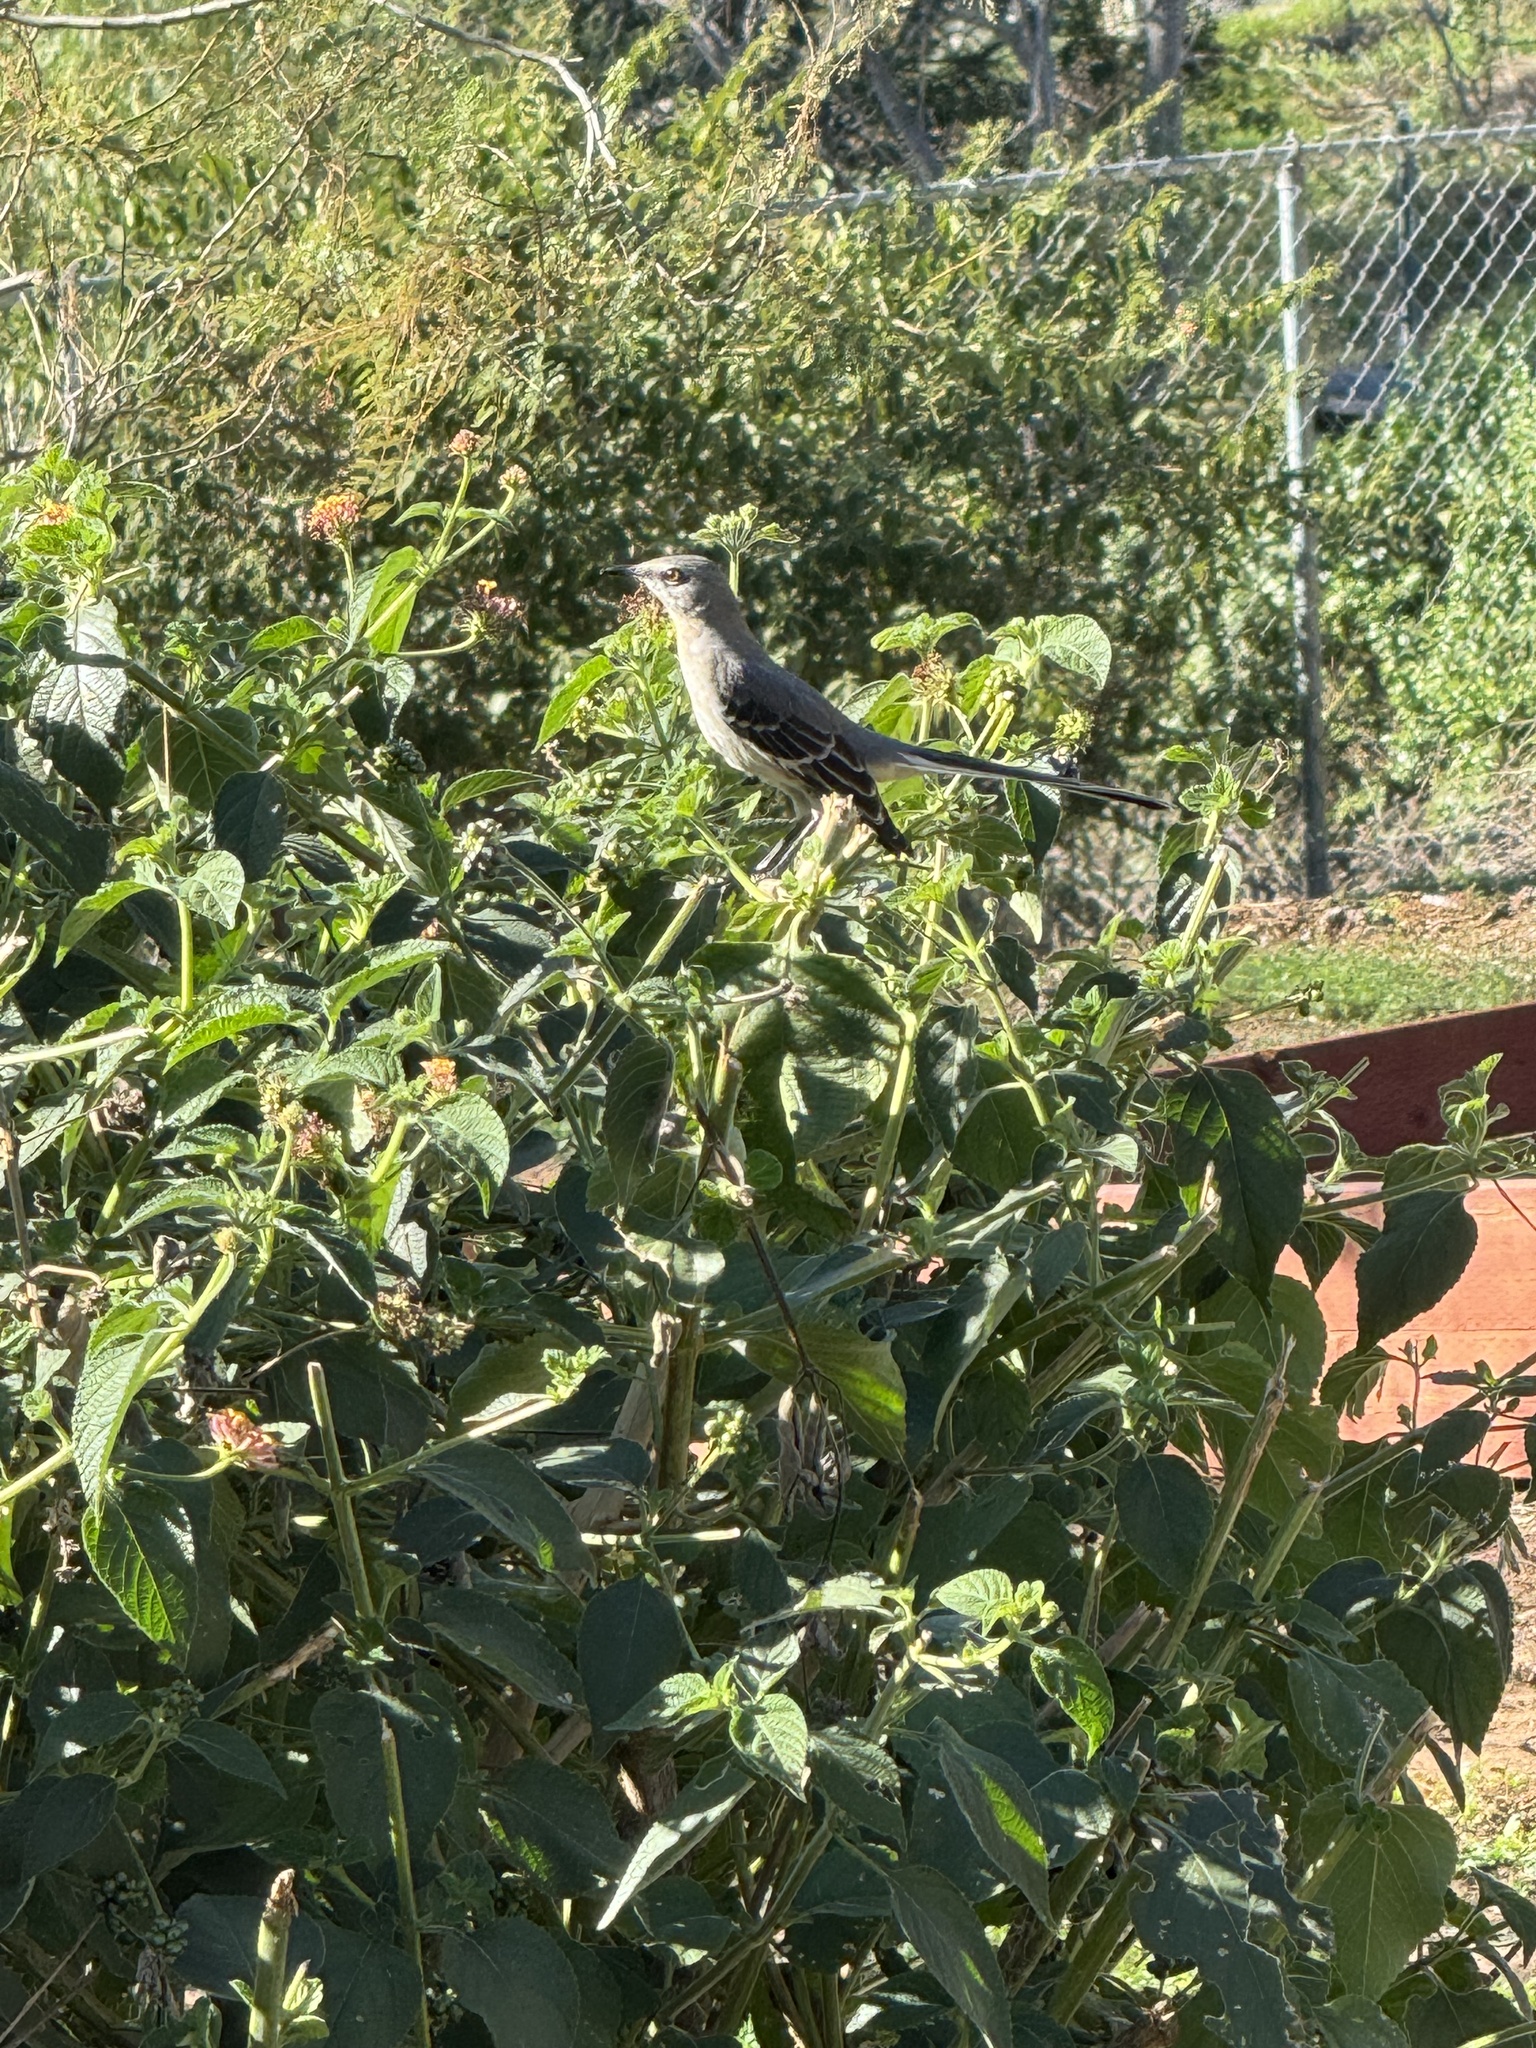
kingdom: Animalia
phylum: Chordata
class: Aves
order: Passeriformes
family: Mimidae
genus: Mimus
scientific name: Mimus polyglottos
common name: Northern mockingbird
